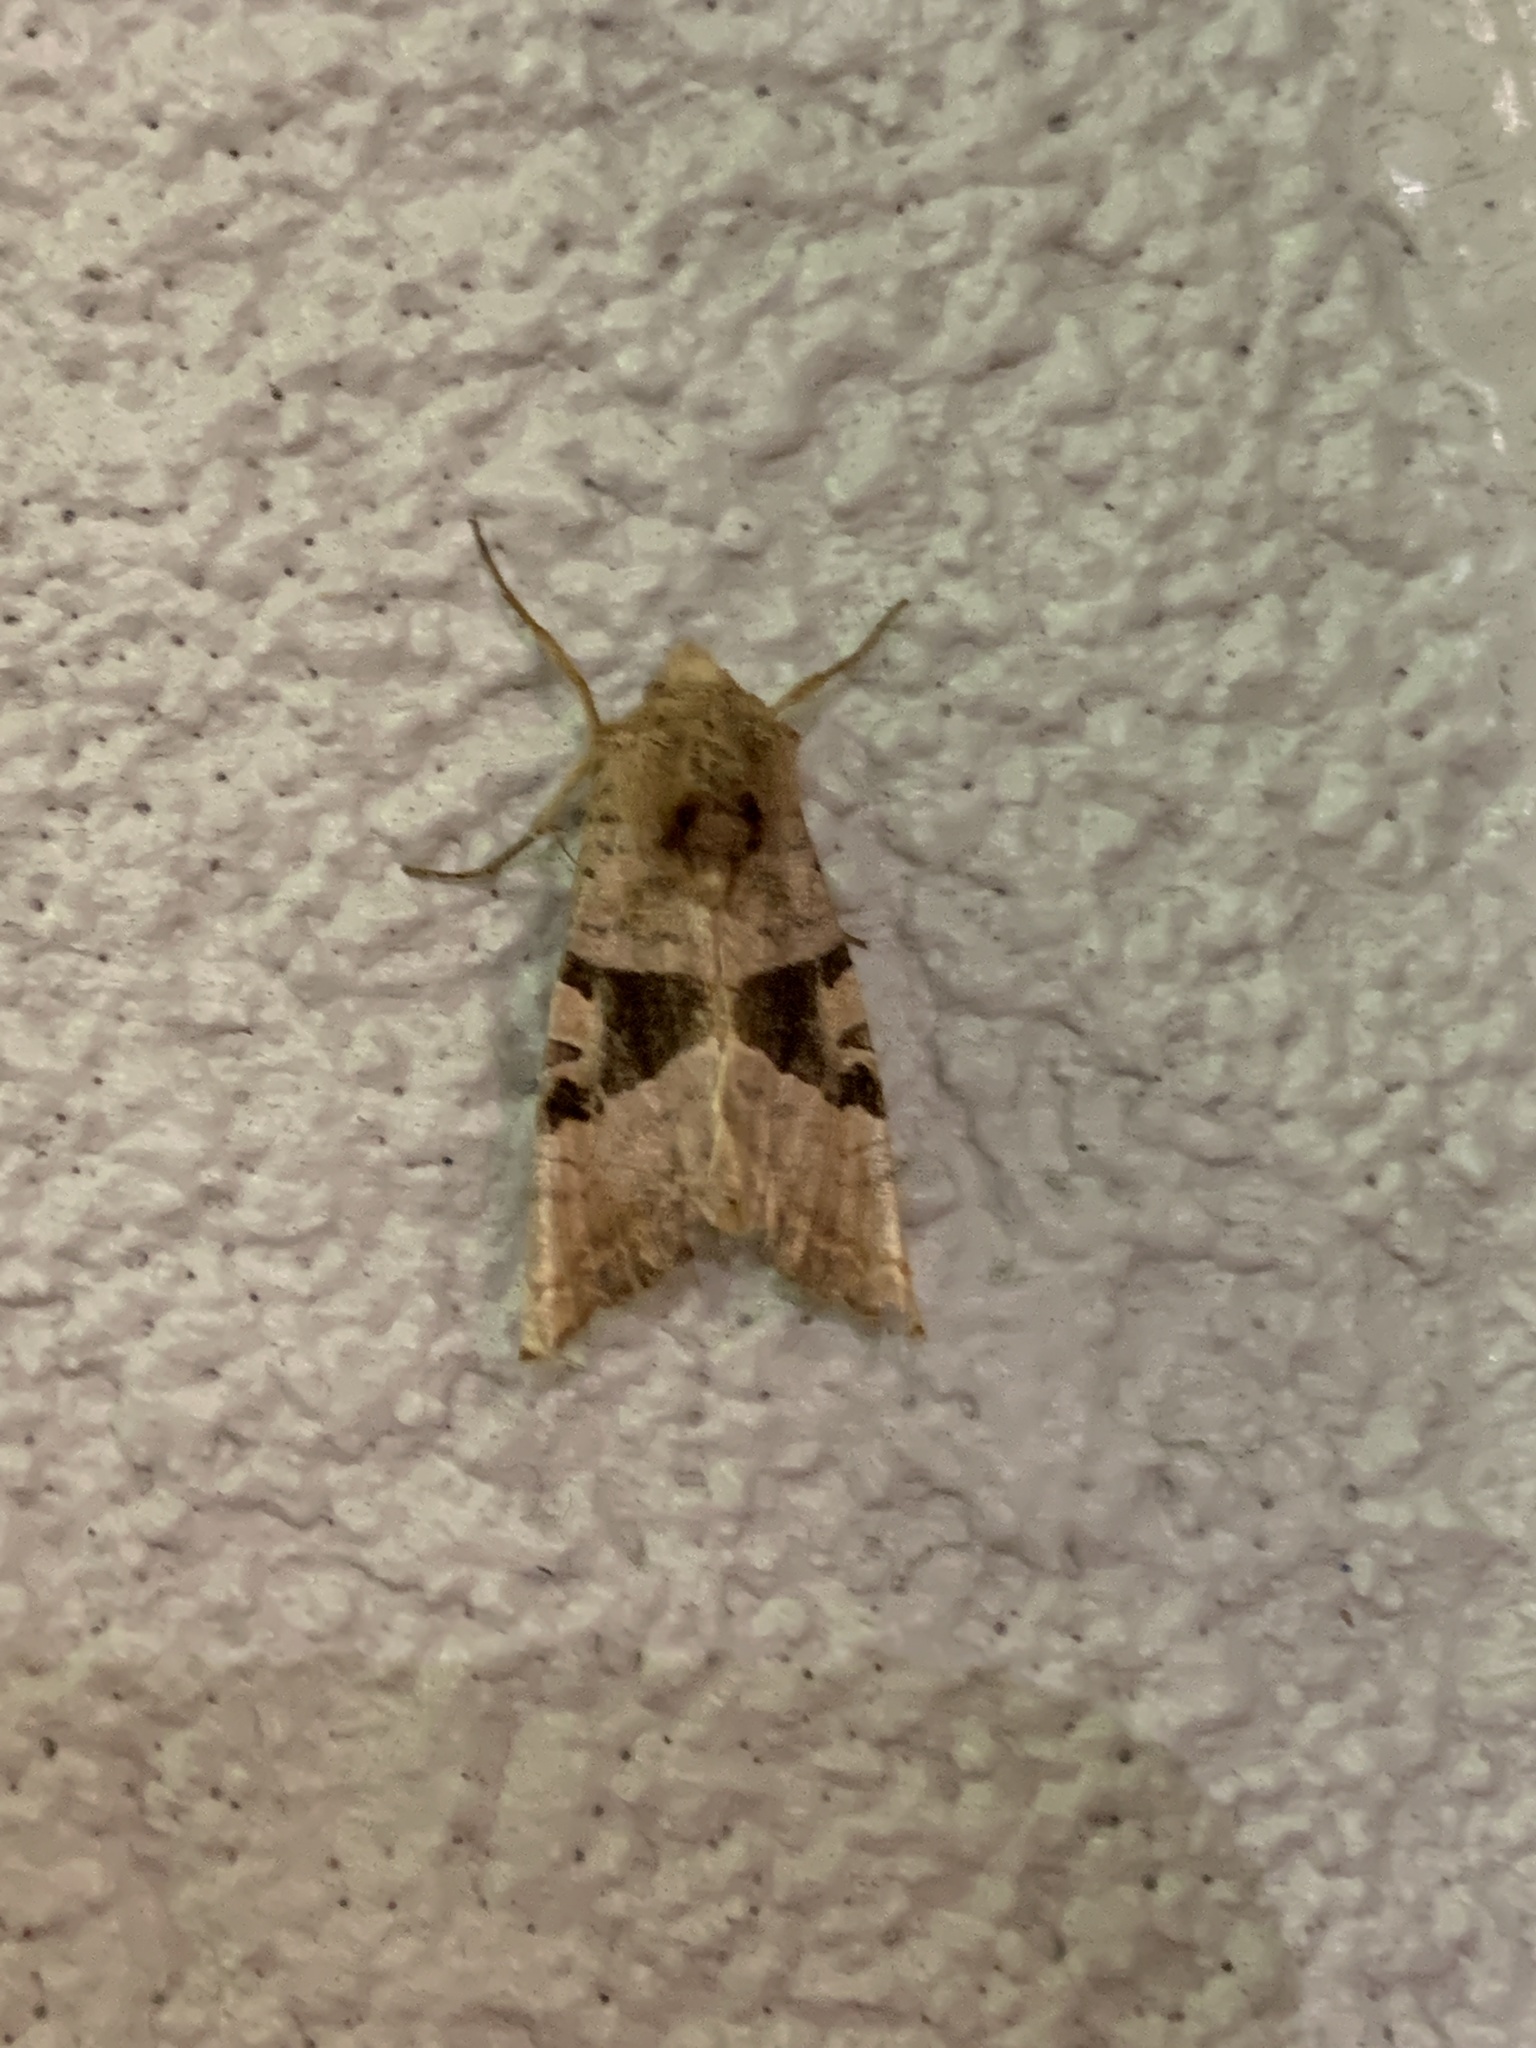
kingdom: Animalia
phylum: Arthropoda
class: Insecta
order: Lepidoptera
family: Noctuidae
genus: Phlogophora
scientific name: Phlogophora periculosa
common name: Brown angle shades
